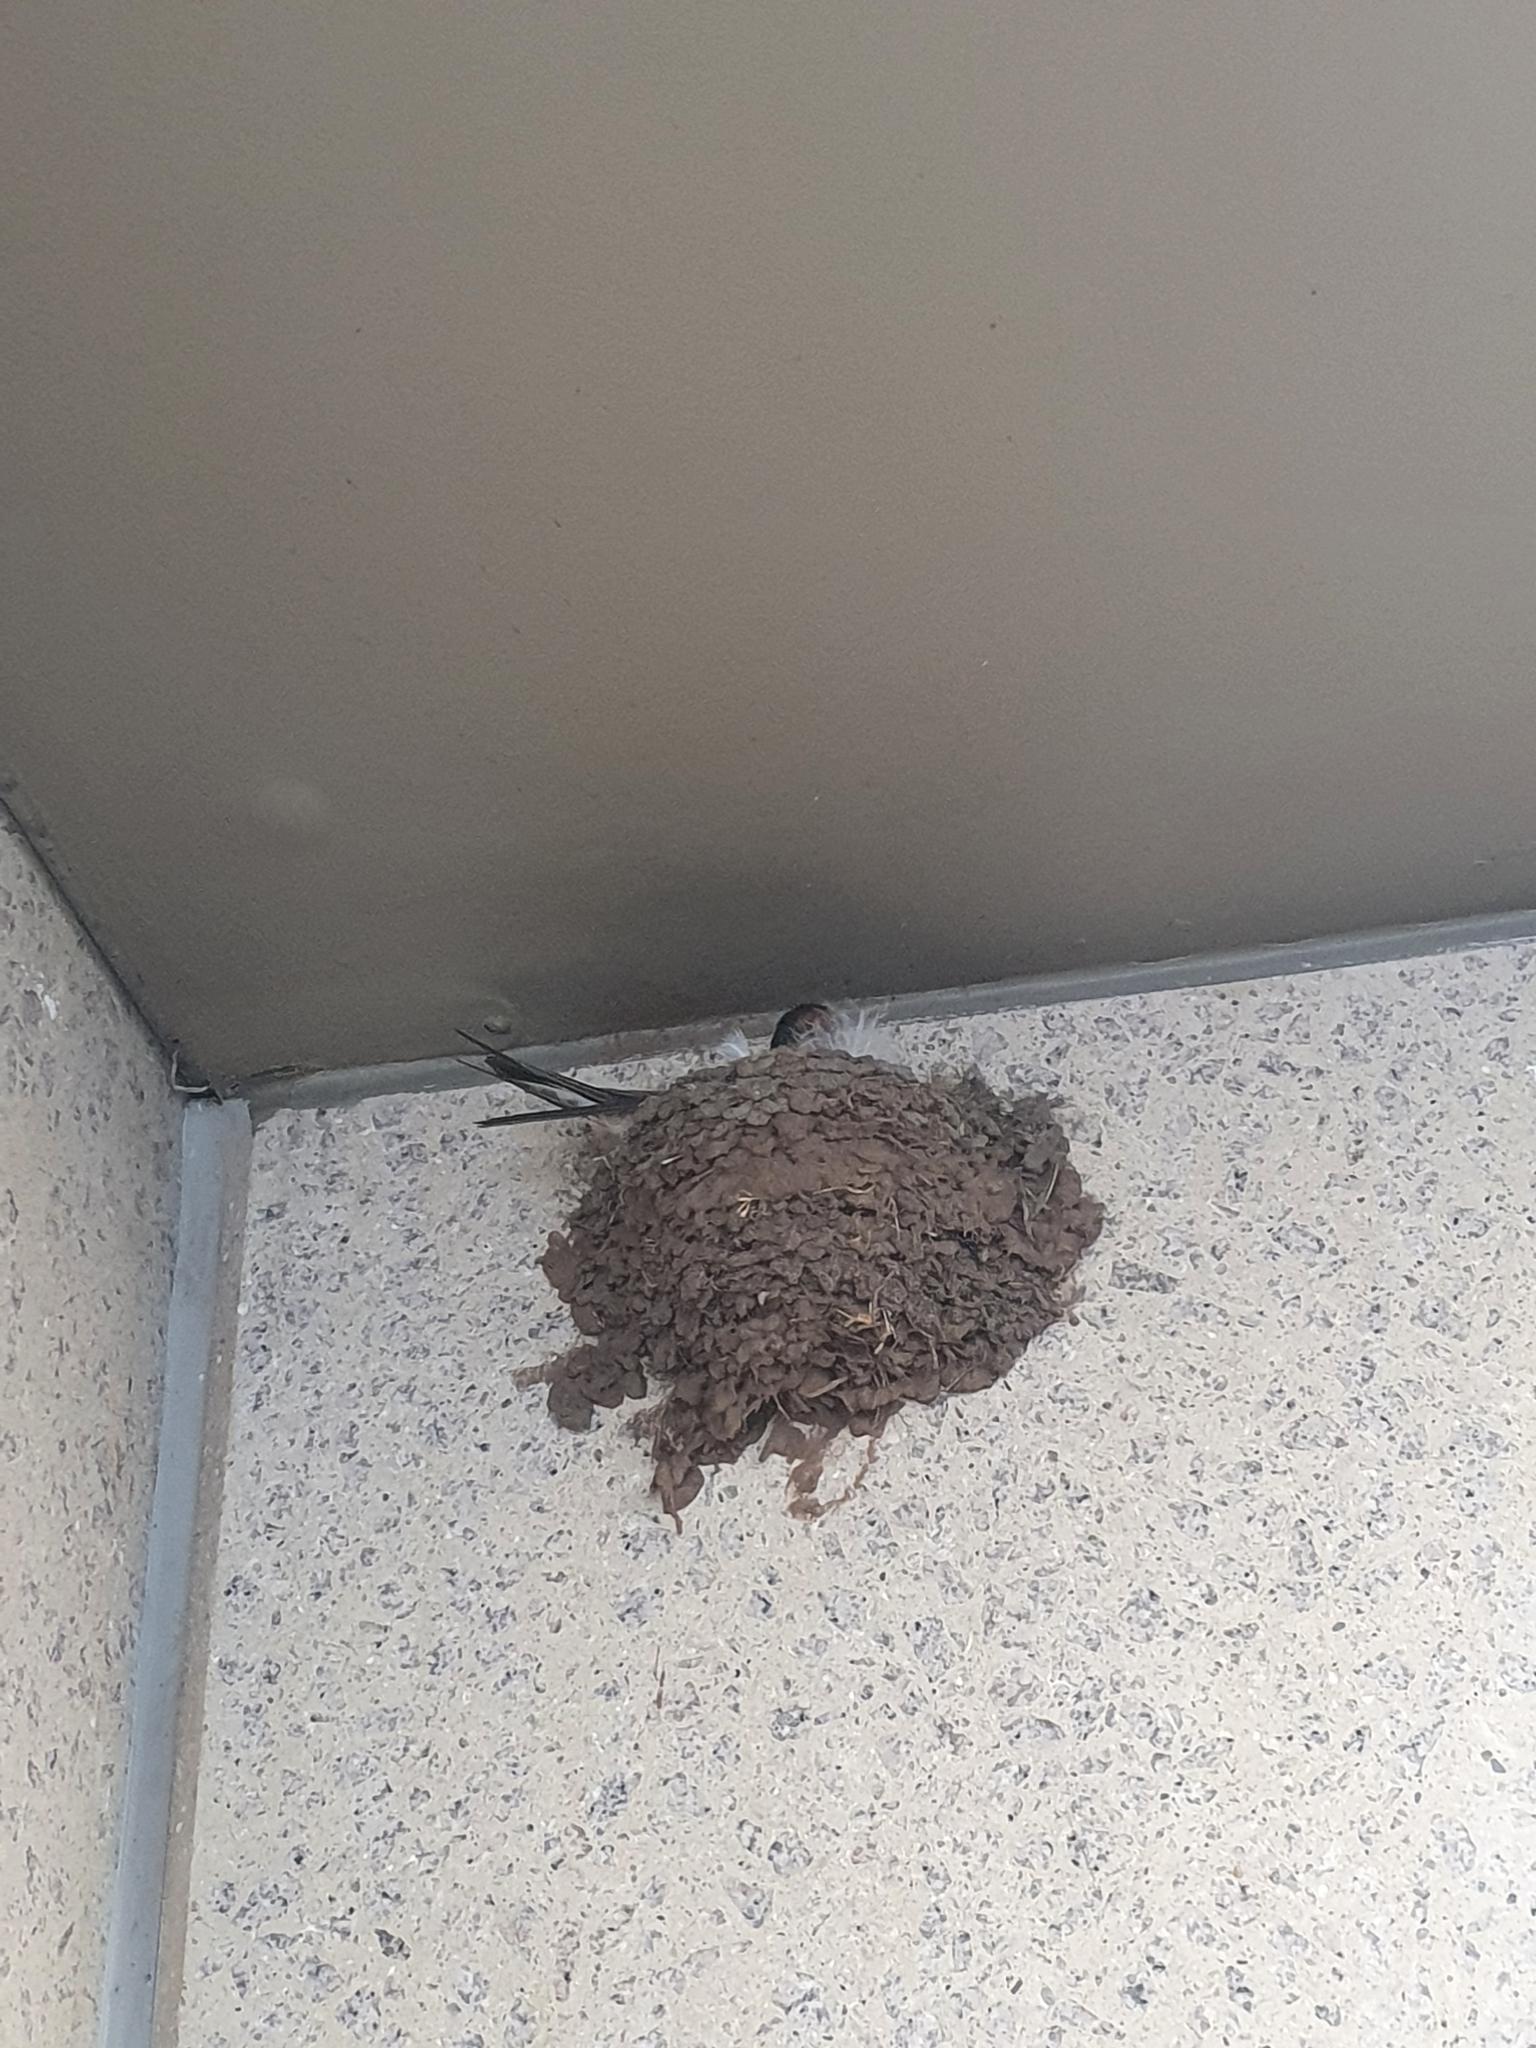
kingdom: Animalia
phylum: Chordata
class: Aves
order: Passeriformes
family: Hirundinidae
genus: Hirundo
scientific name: Hirundo neoxena
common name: Welcome swallow
